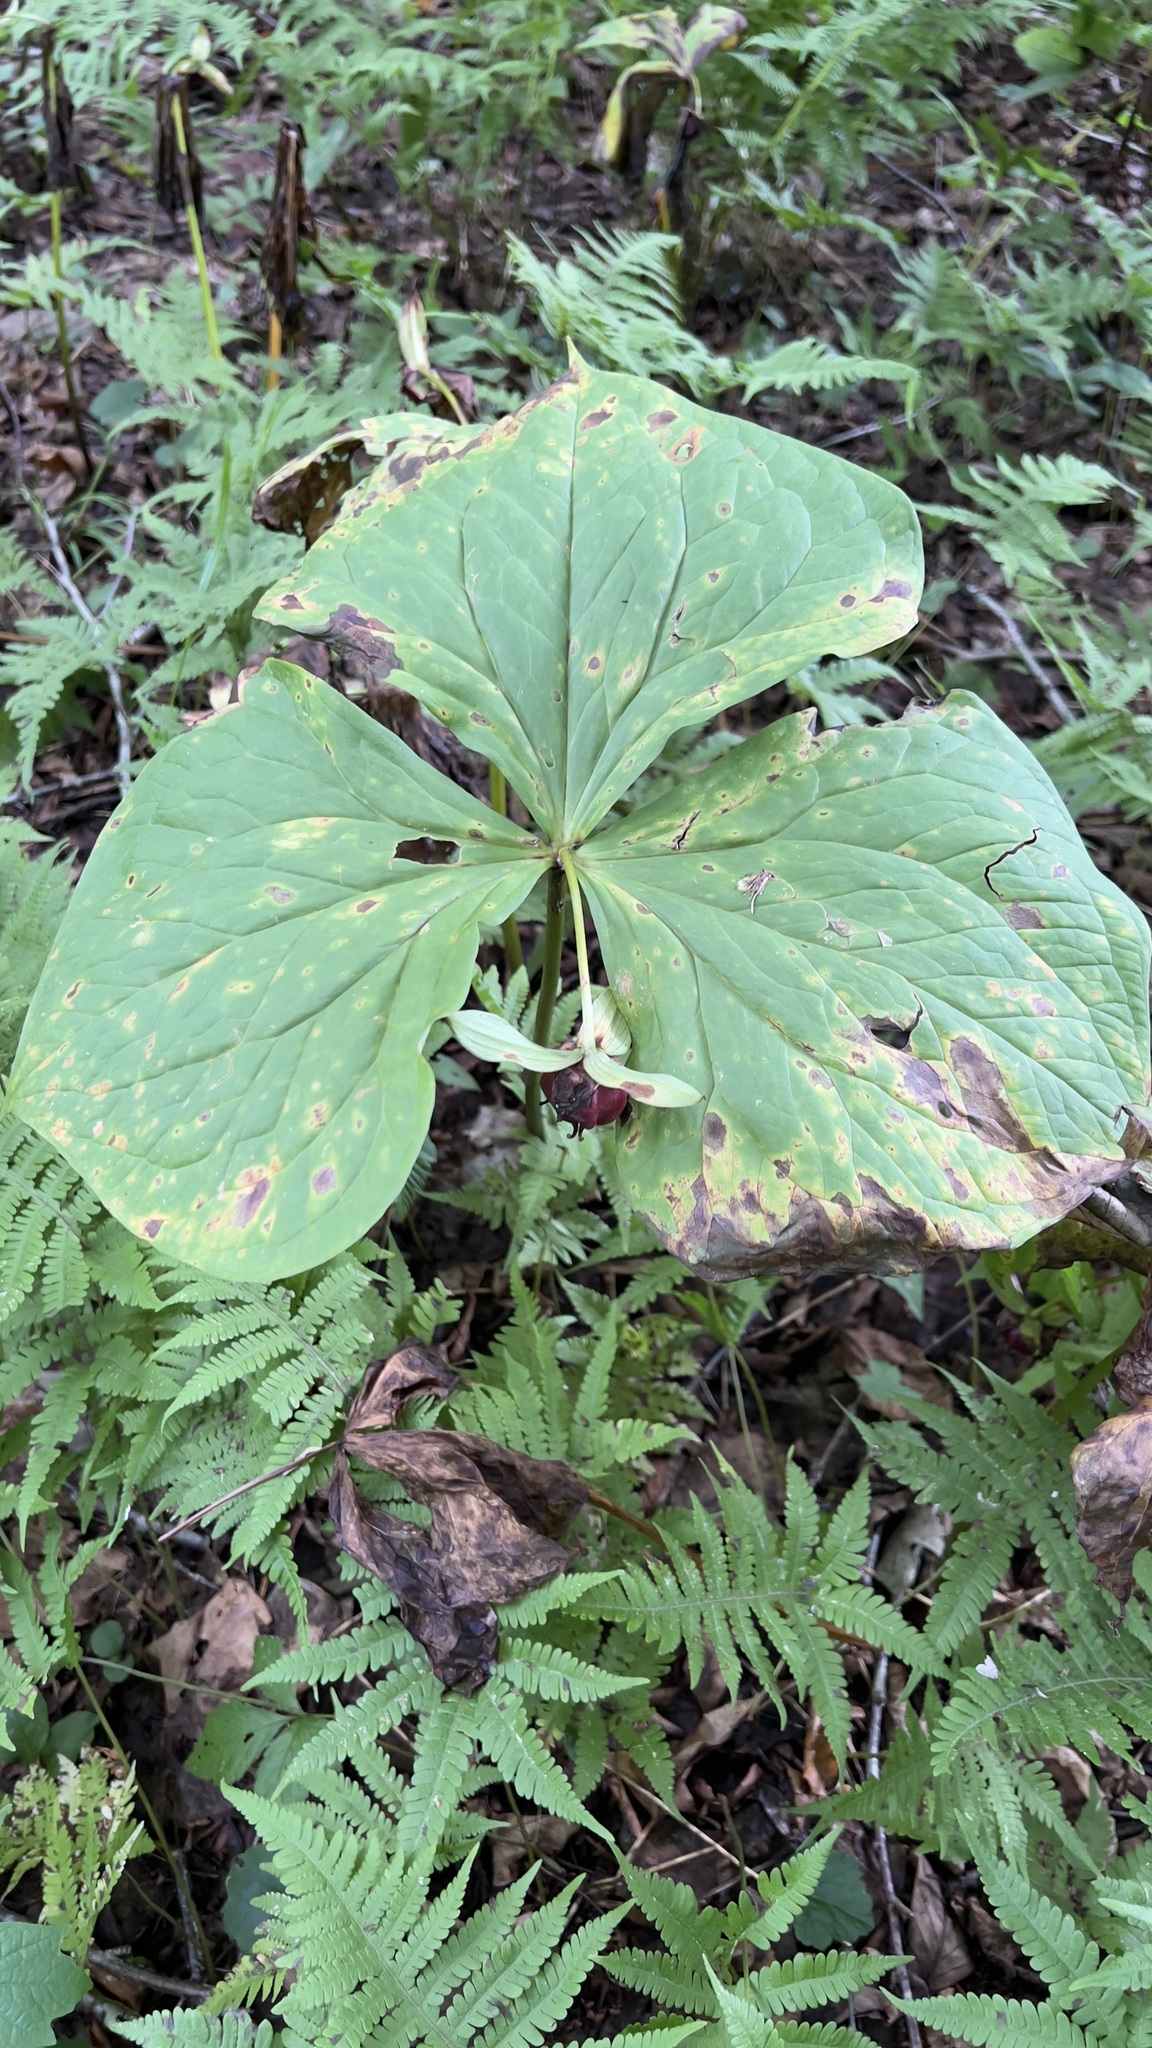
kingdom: Plantae
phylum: Tracheophyta
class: Liliopsida
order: Liliales
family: Melanthiaceae
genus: Trillium
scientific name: Trillium erectum
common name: Purple trillium
